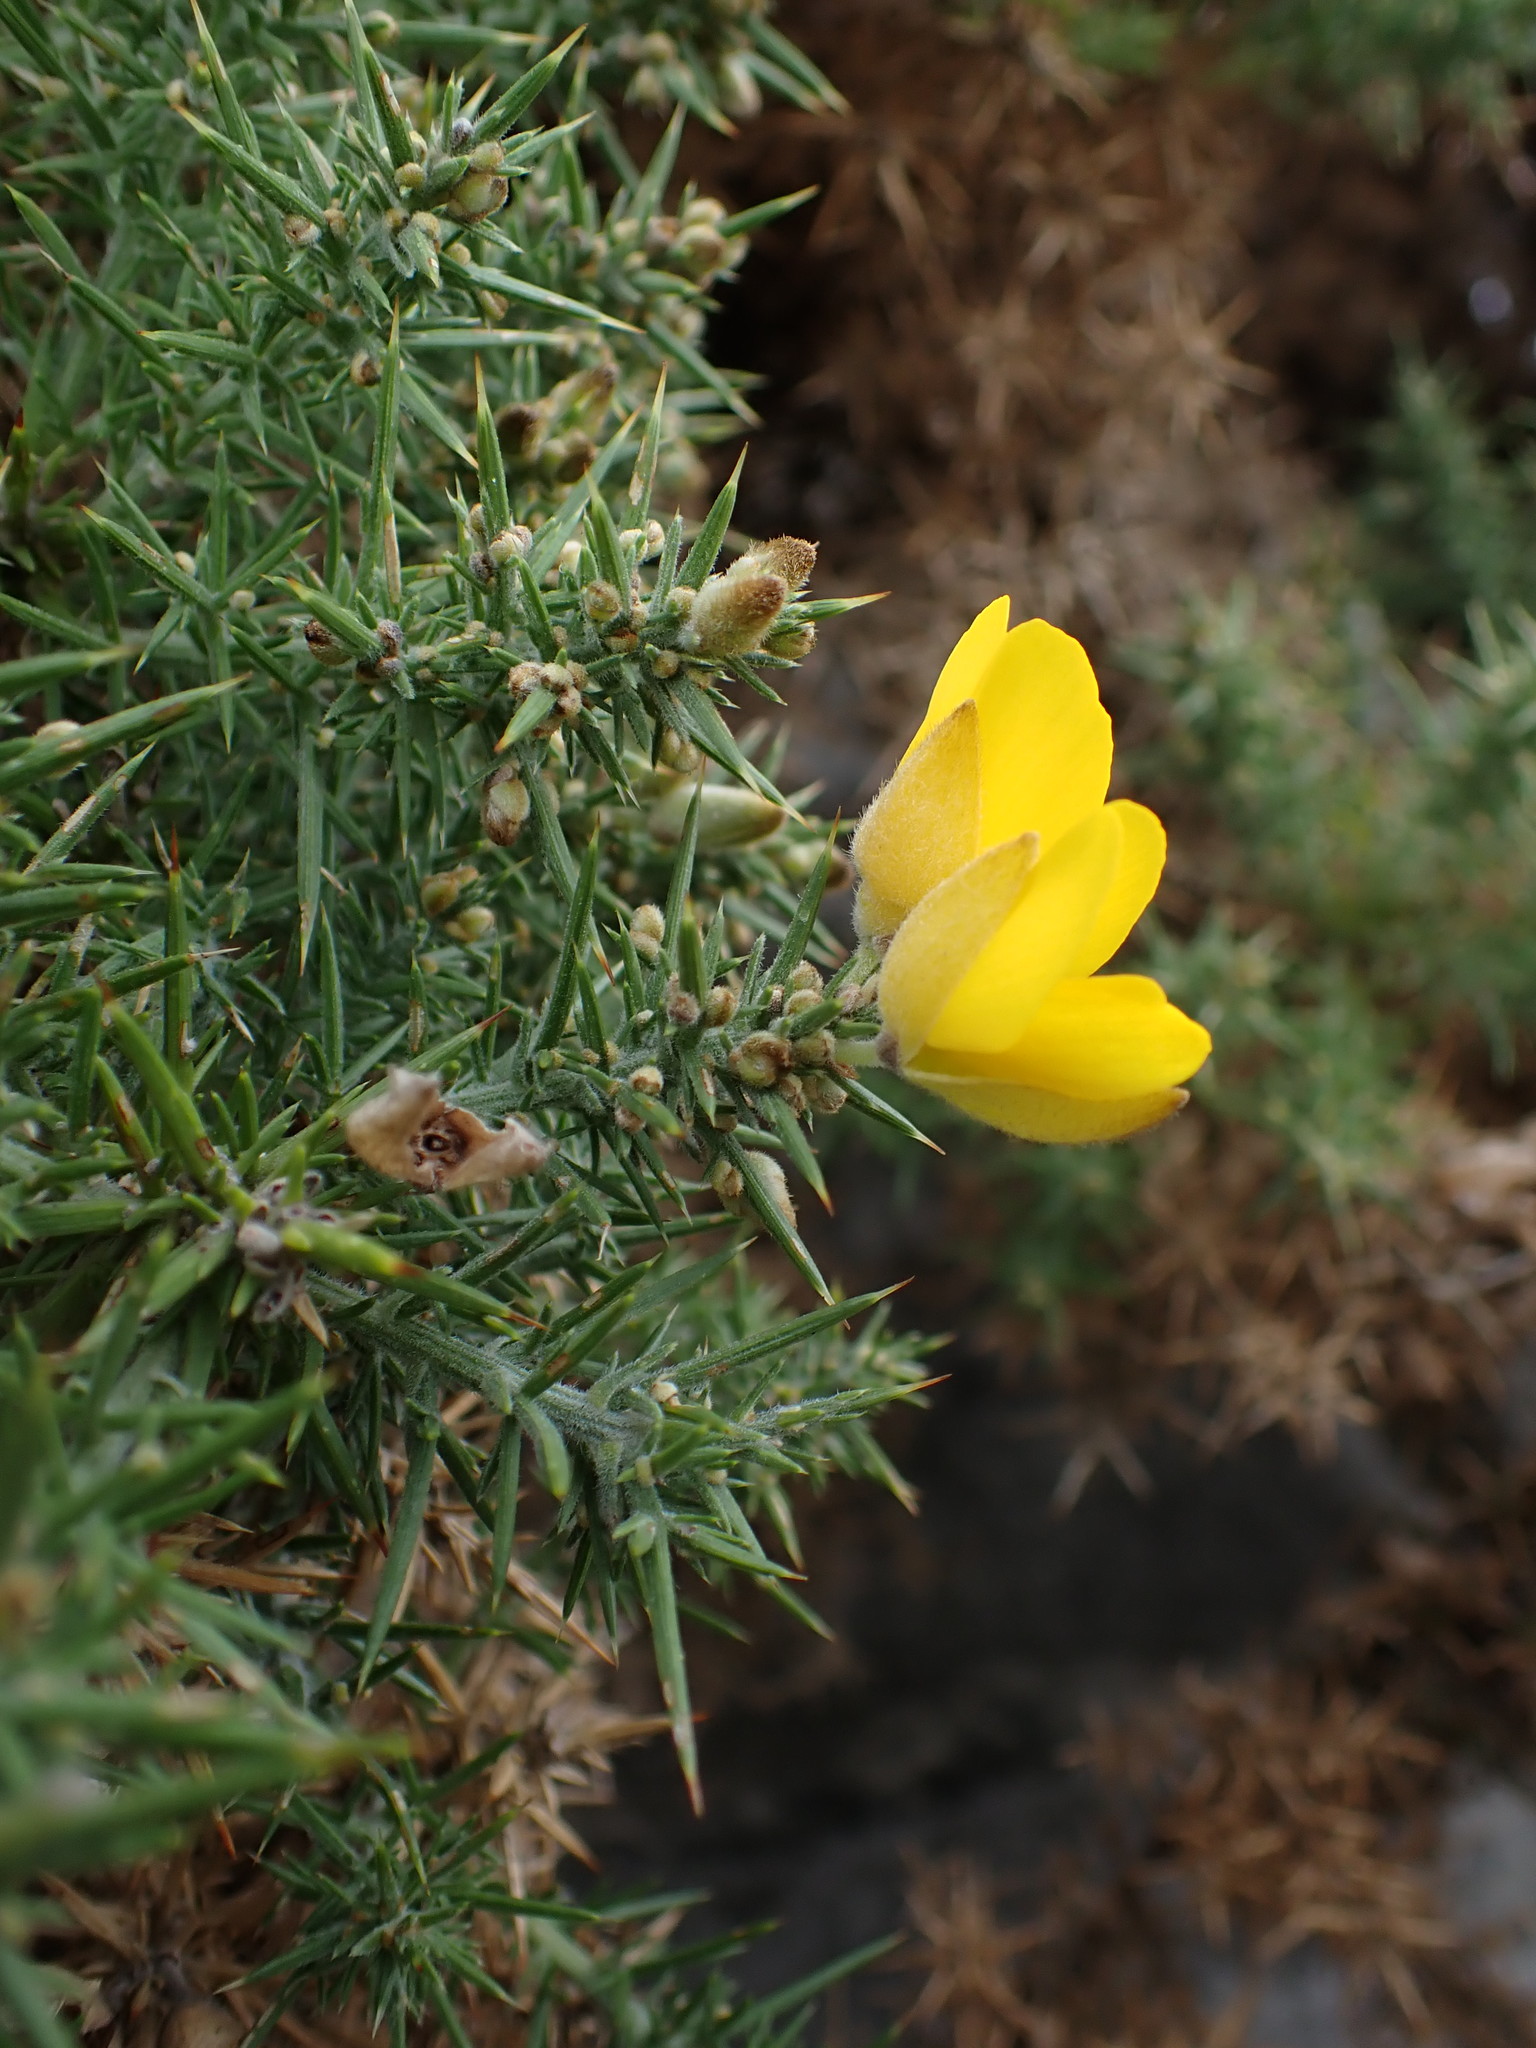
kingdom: Plantae
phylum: Tracheophyta
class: Magnoliopsida
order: Fabales
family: Fabaceae
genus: Ulex
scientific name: Ulex europaeus
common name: Common gorse
